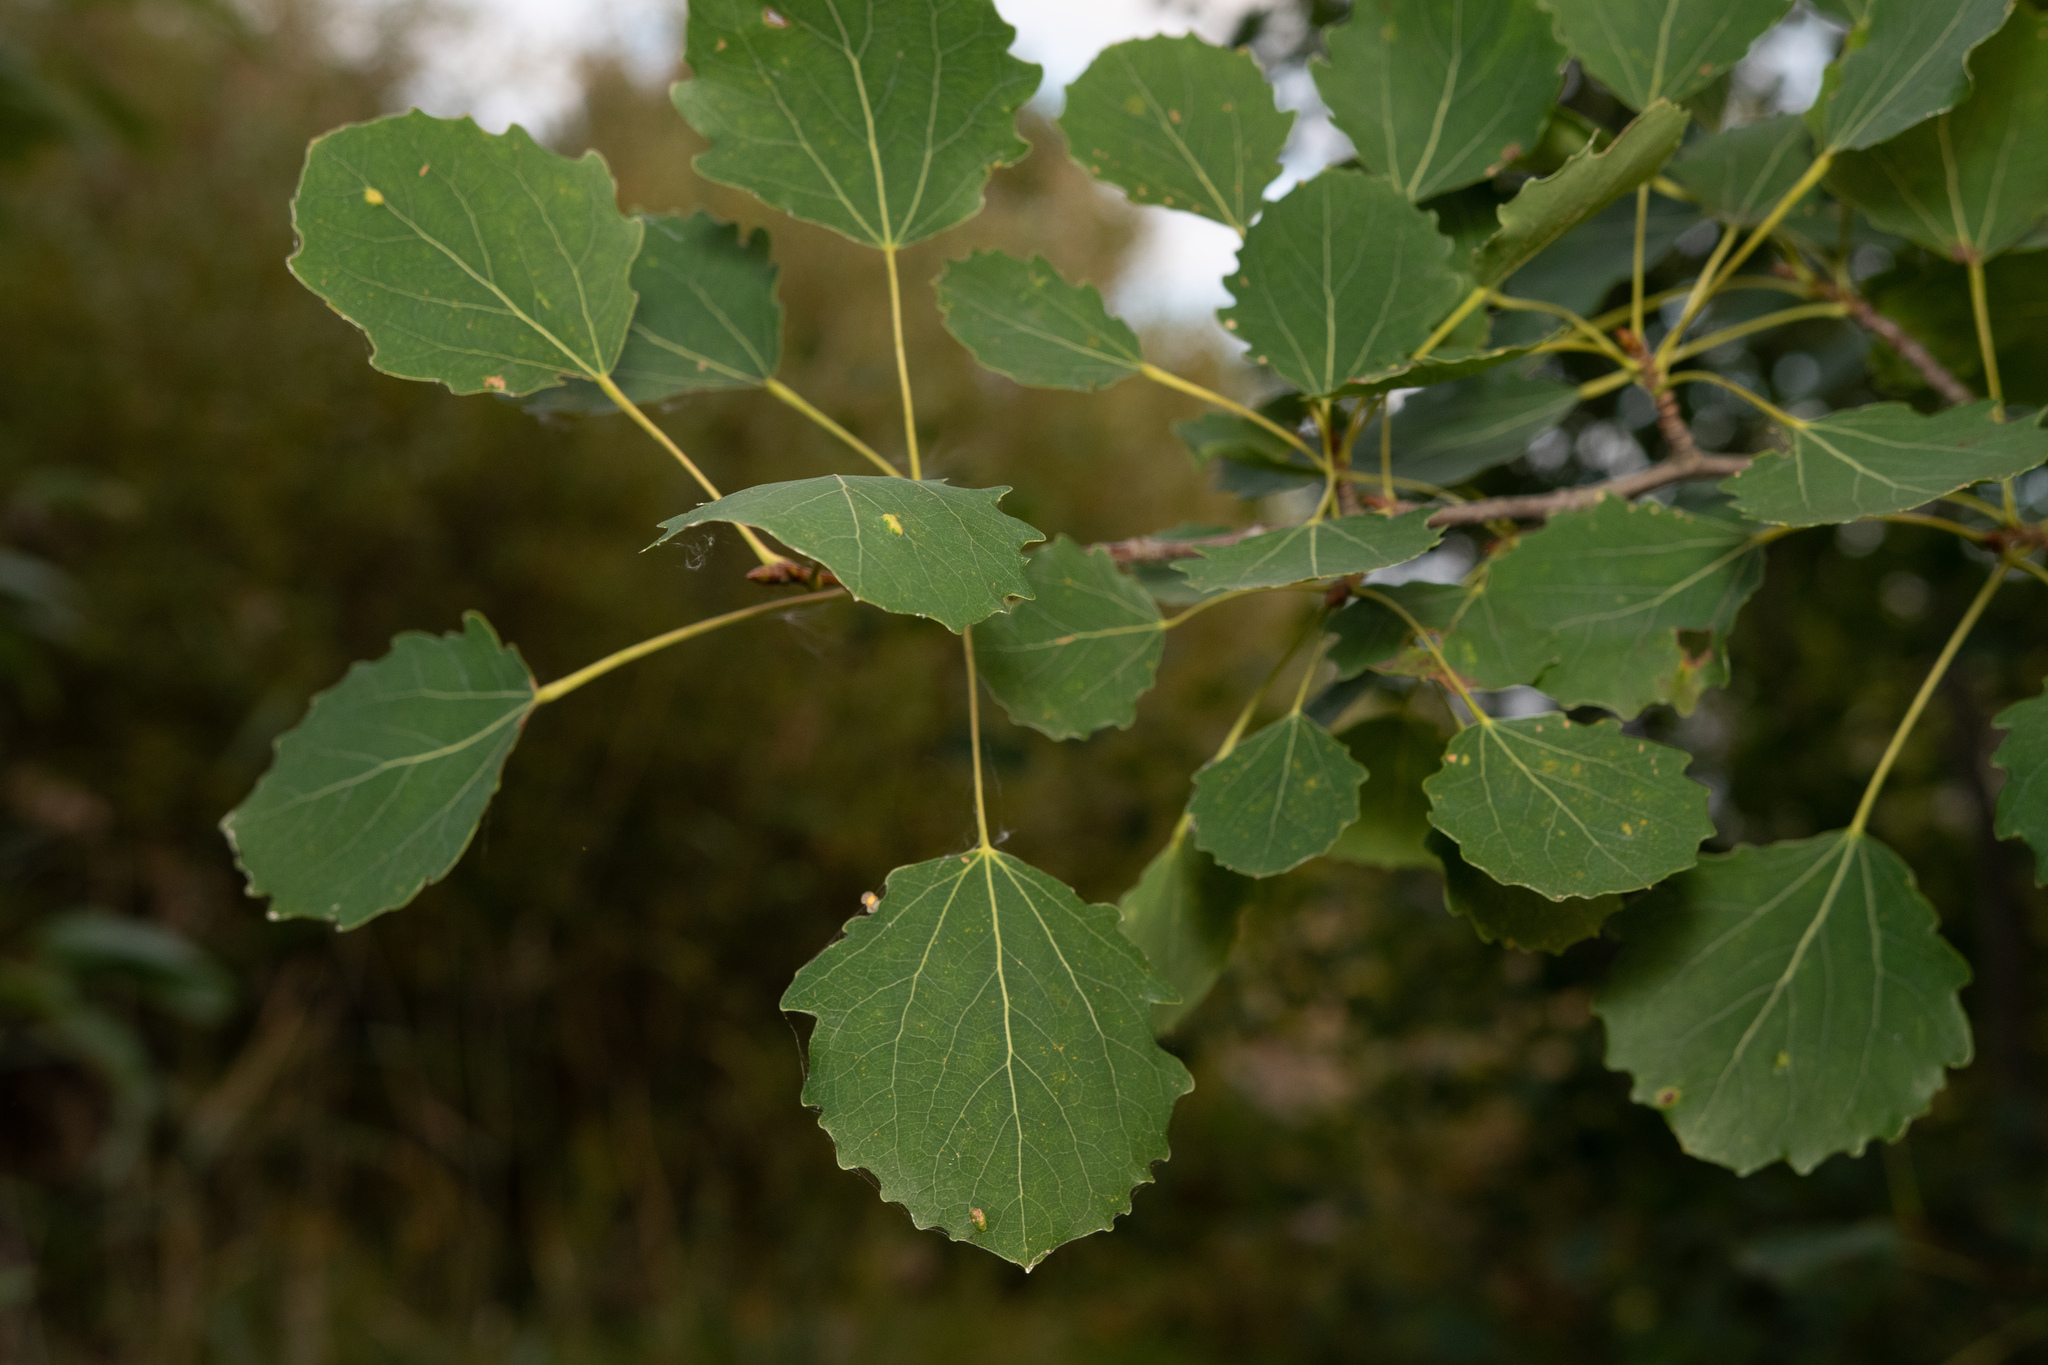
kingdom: Plantae
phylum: Tracheophyta
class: Magnoliopsida
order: Malpighiales
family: Salicaceae
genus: Populus
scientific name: Populus tremula
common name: European aspen
